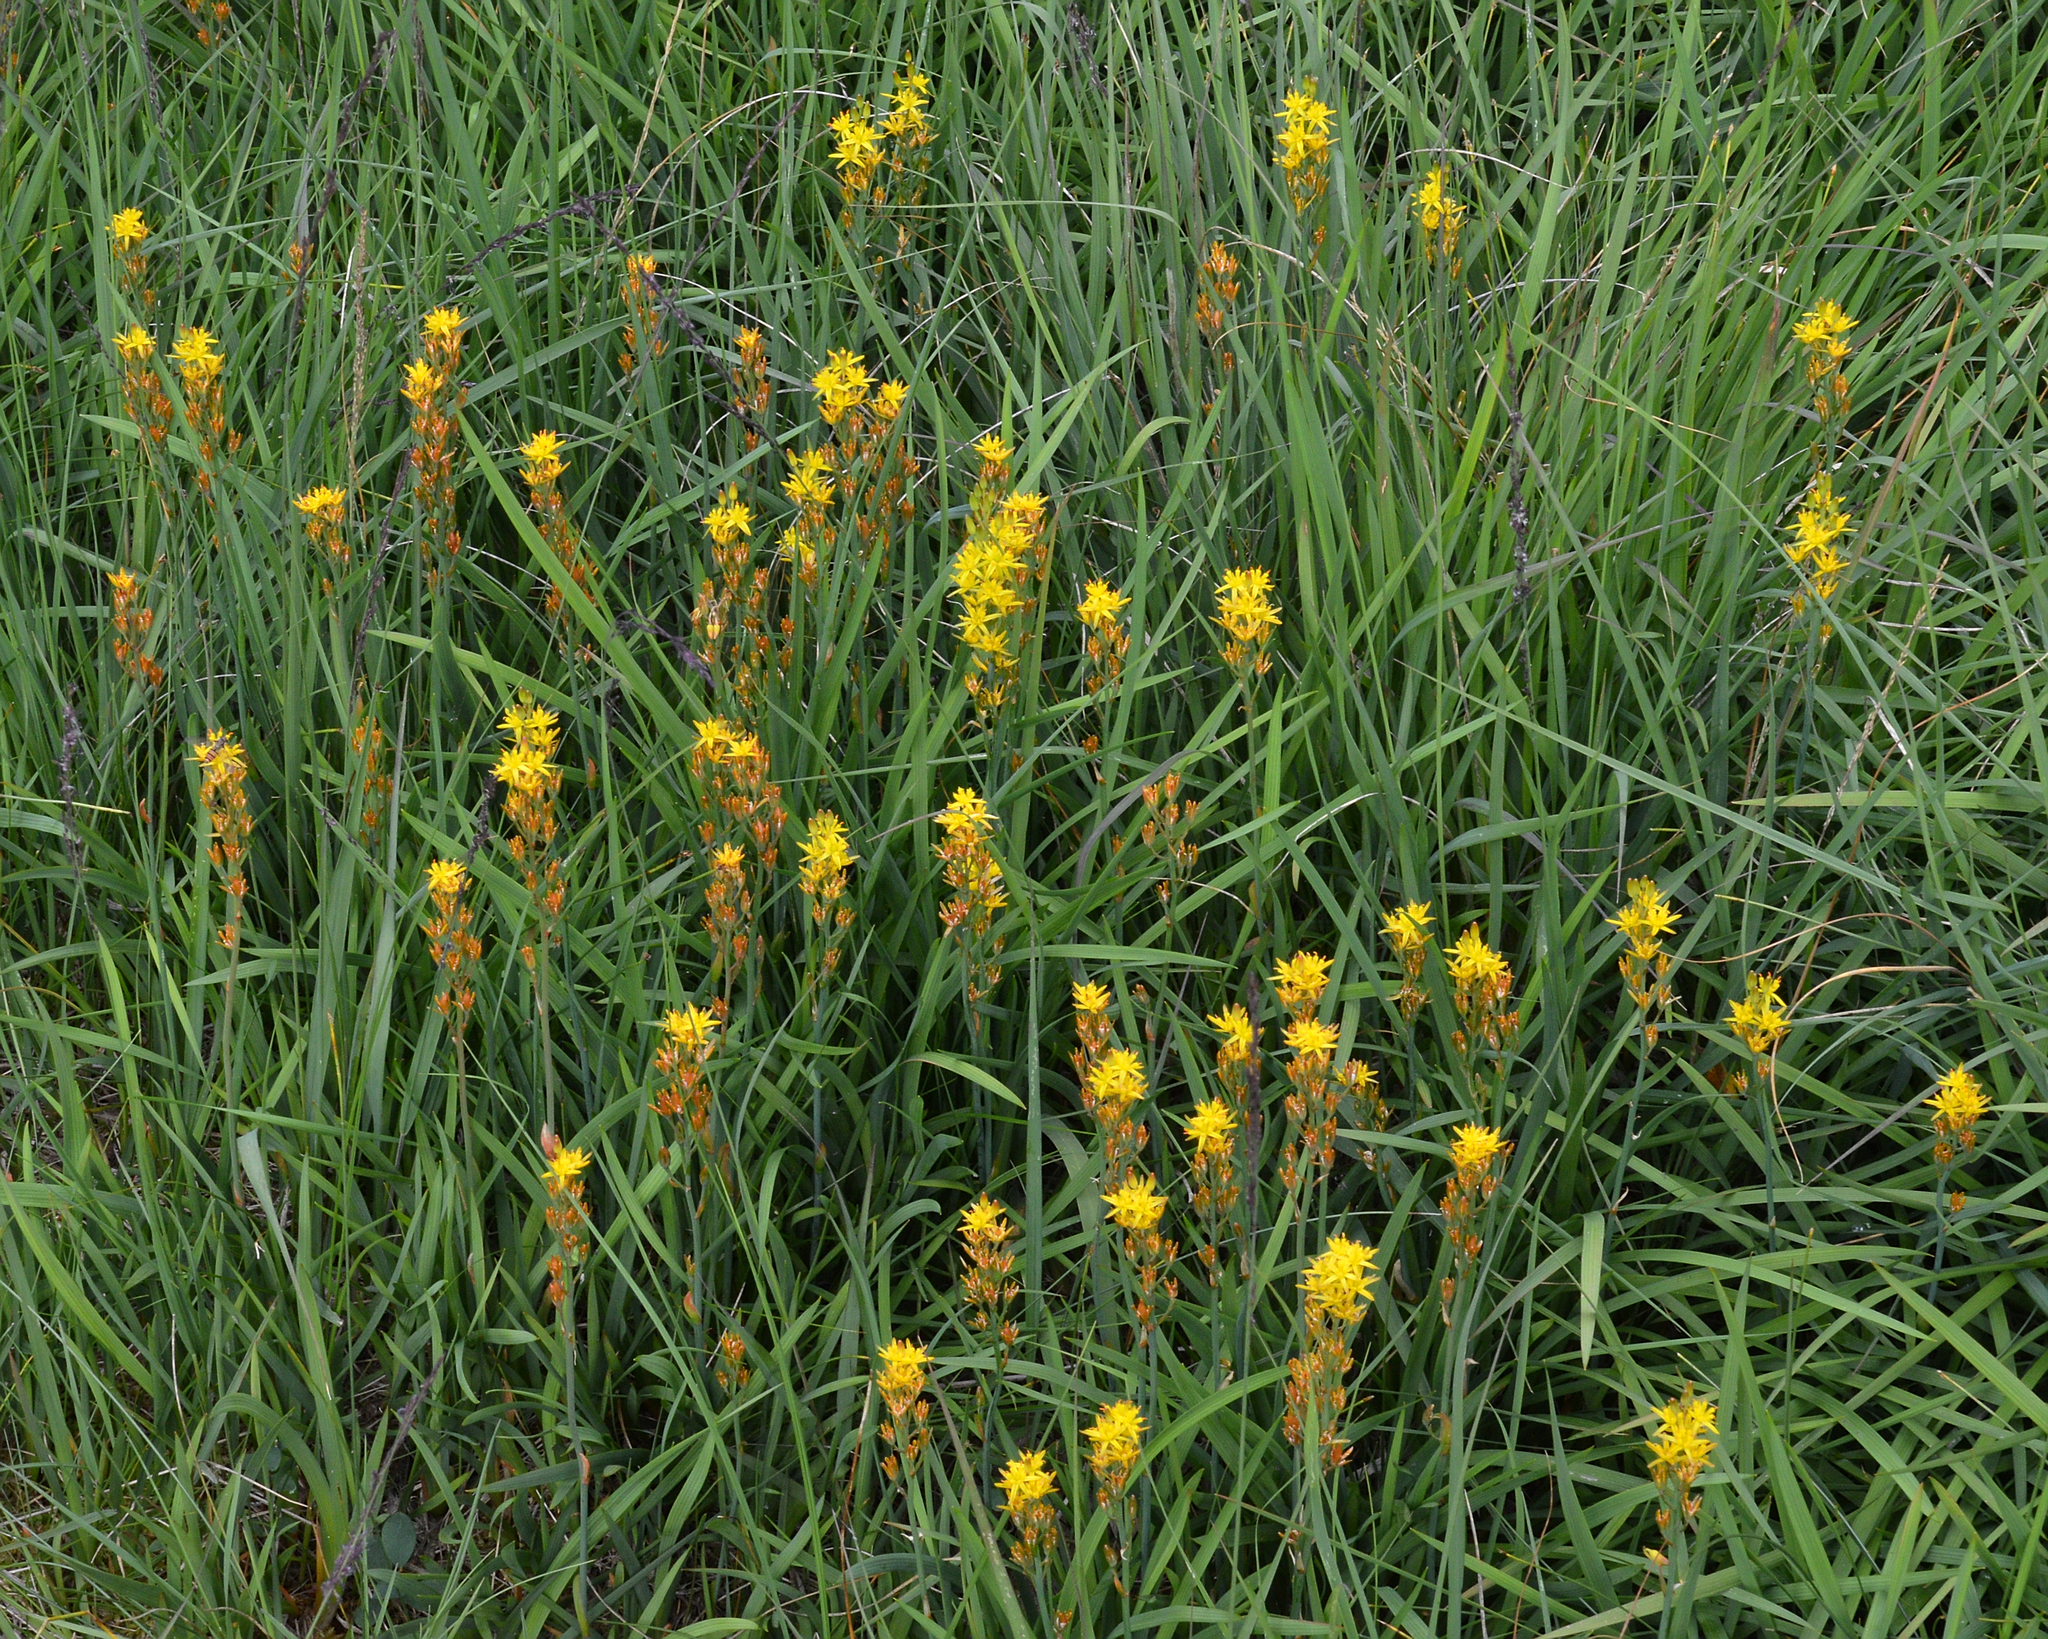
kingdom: Plantae
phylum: Tracheophyta
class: Liliopsida
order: Dioscoreales
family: Nartheciaceae
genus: Narthecium
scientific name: Narthecium ossifragum
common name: Bog asphodel
